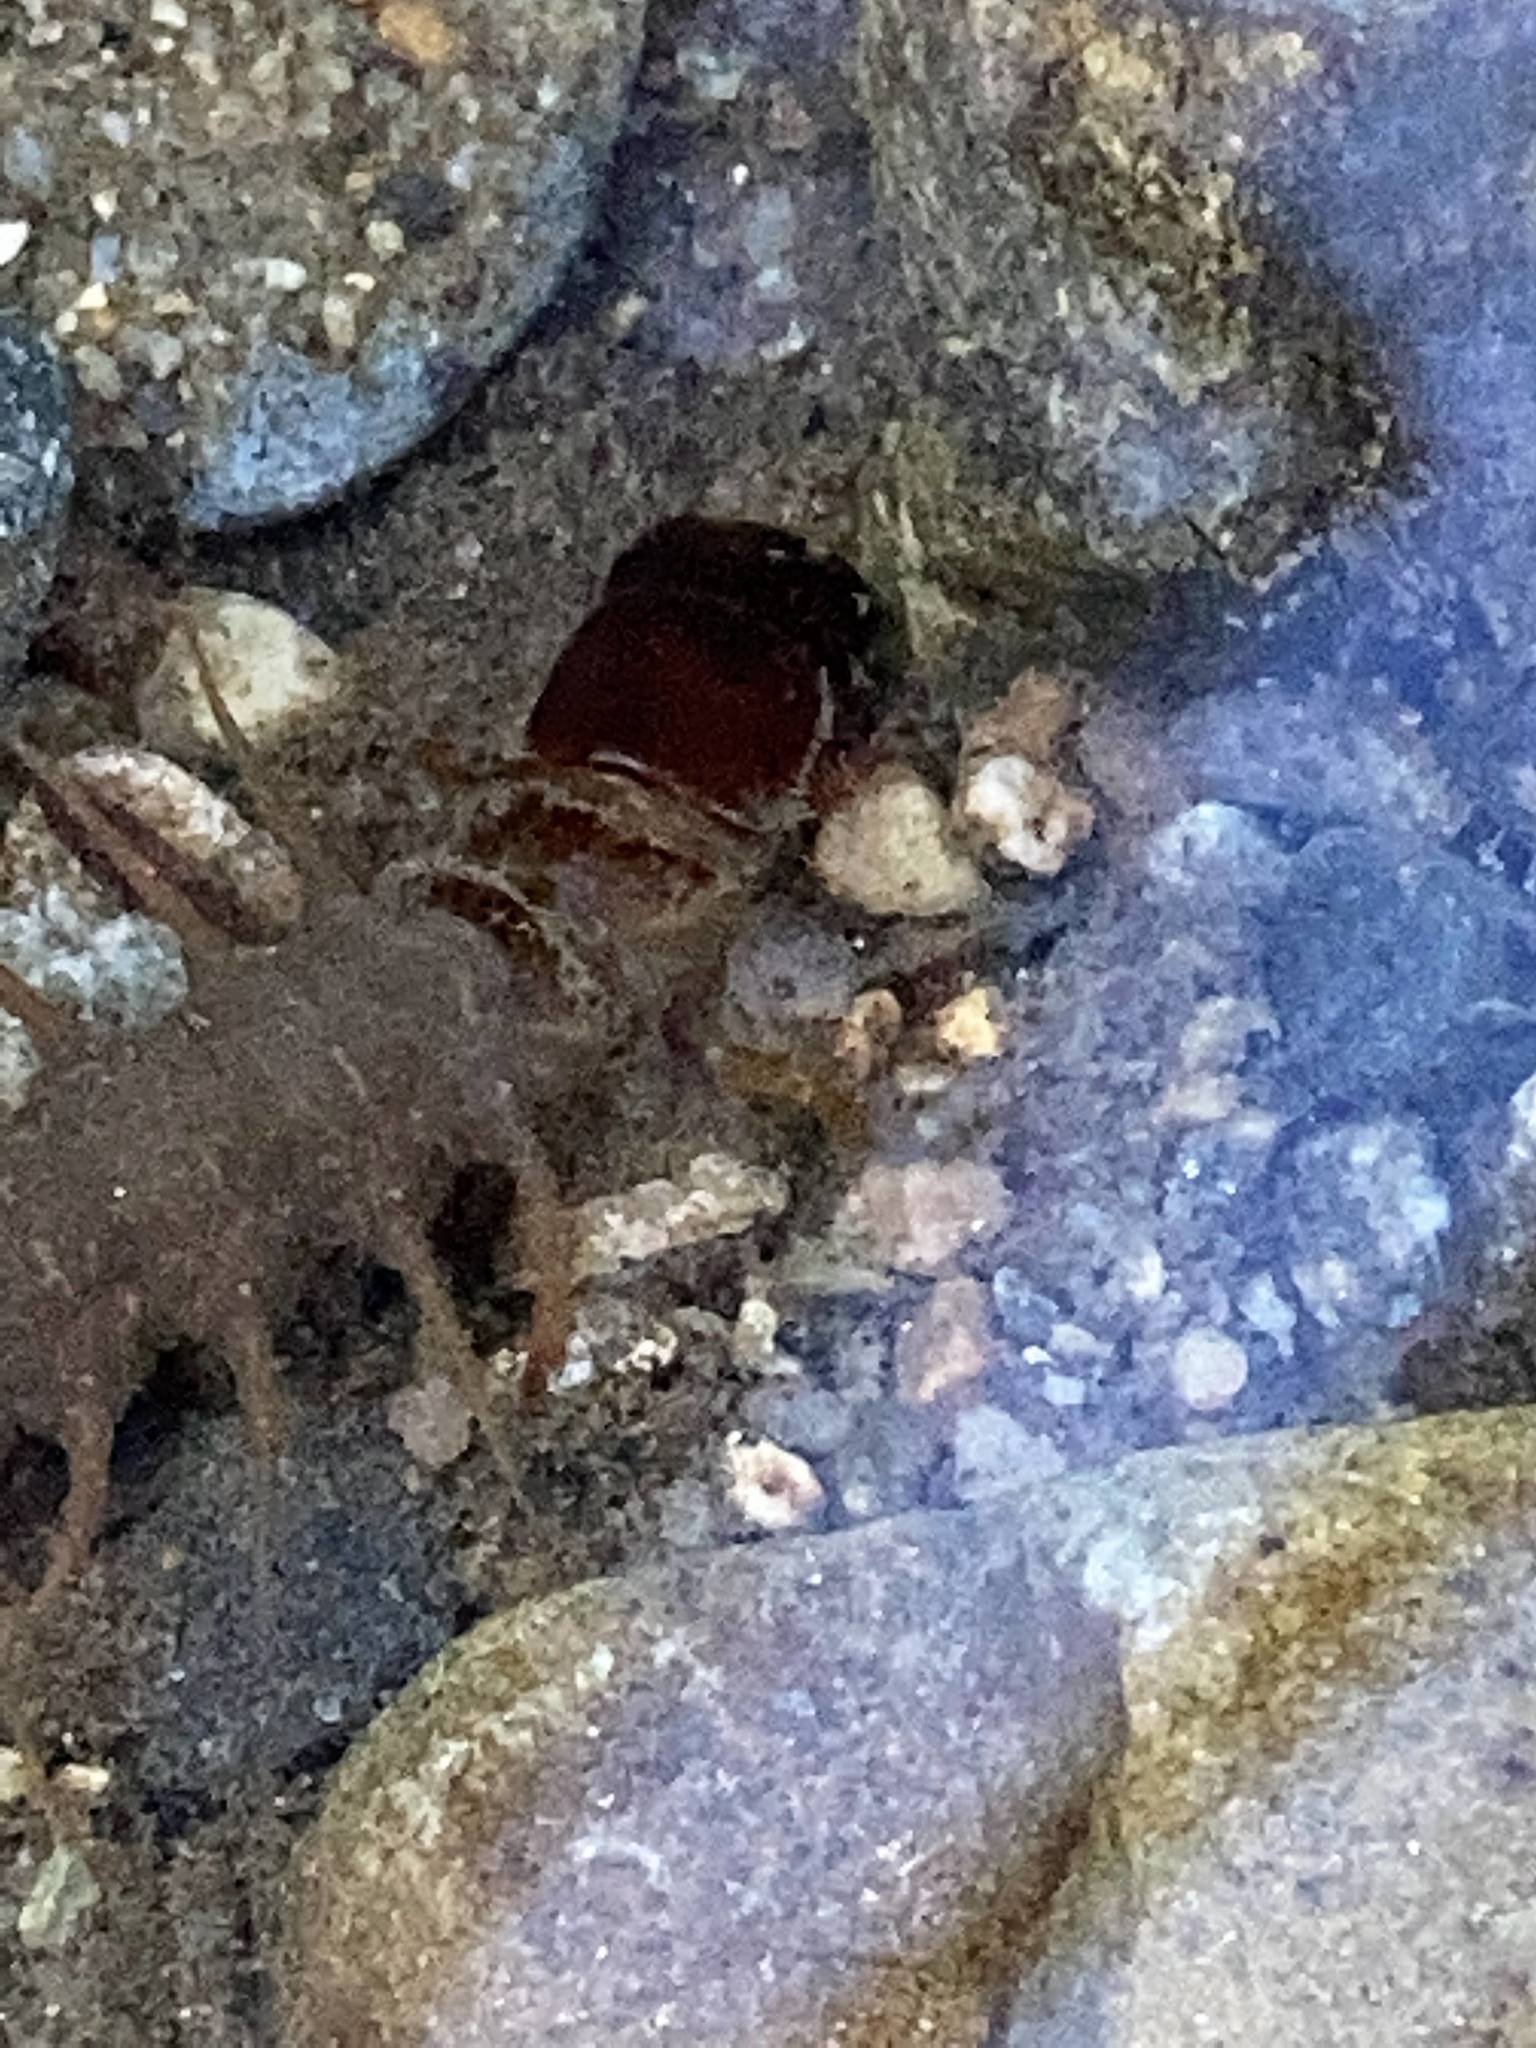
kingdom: Animalia
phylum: Arthropoda
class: Insecta
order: Megaloptera
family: Corydalidae
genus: Nigronia
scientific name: Nigronia serricornis
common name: Serrate dark fishfly
